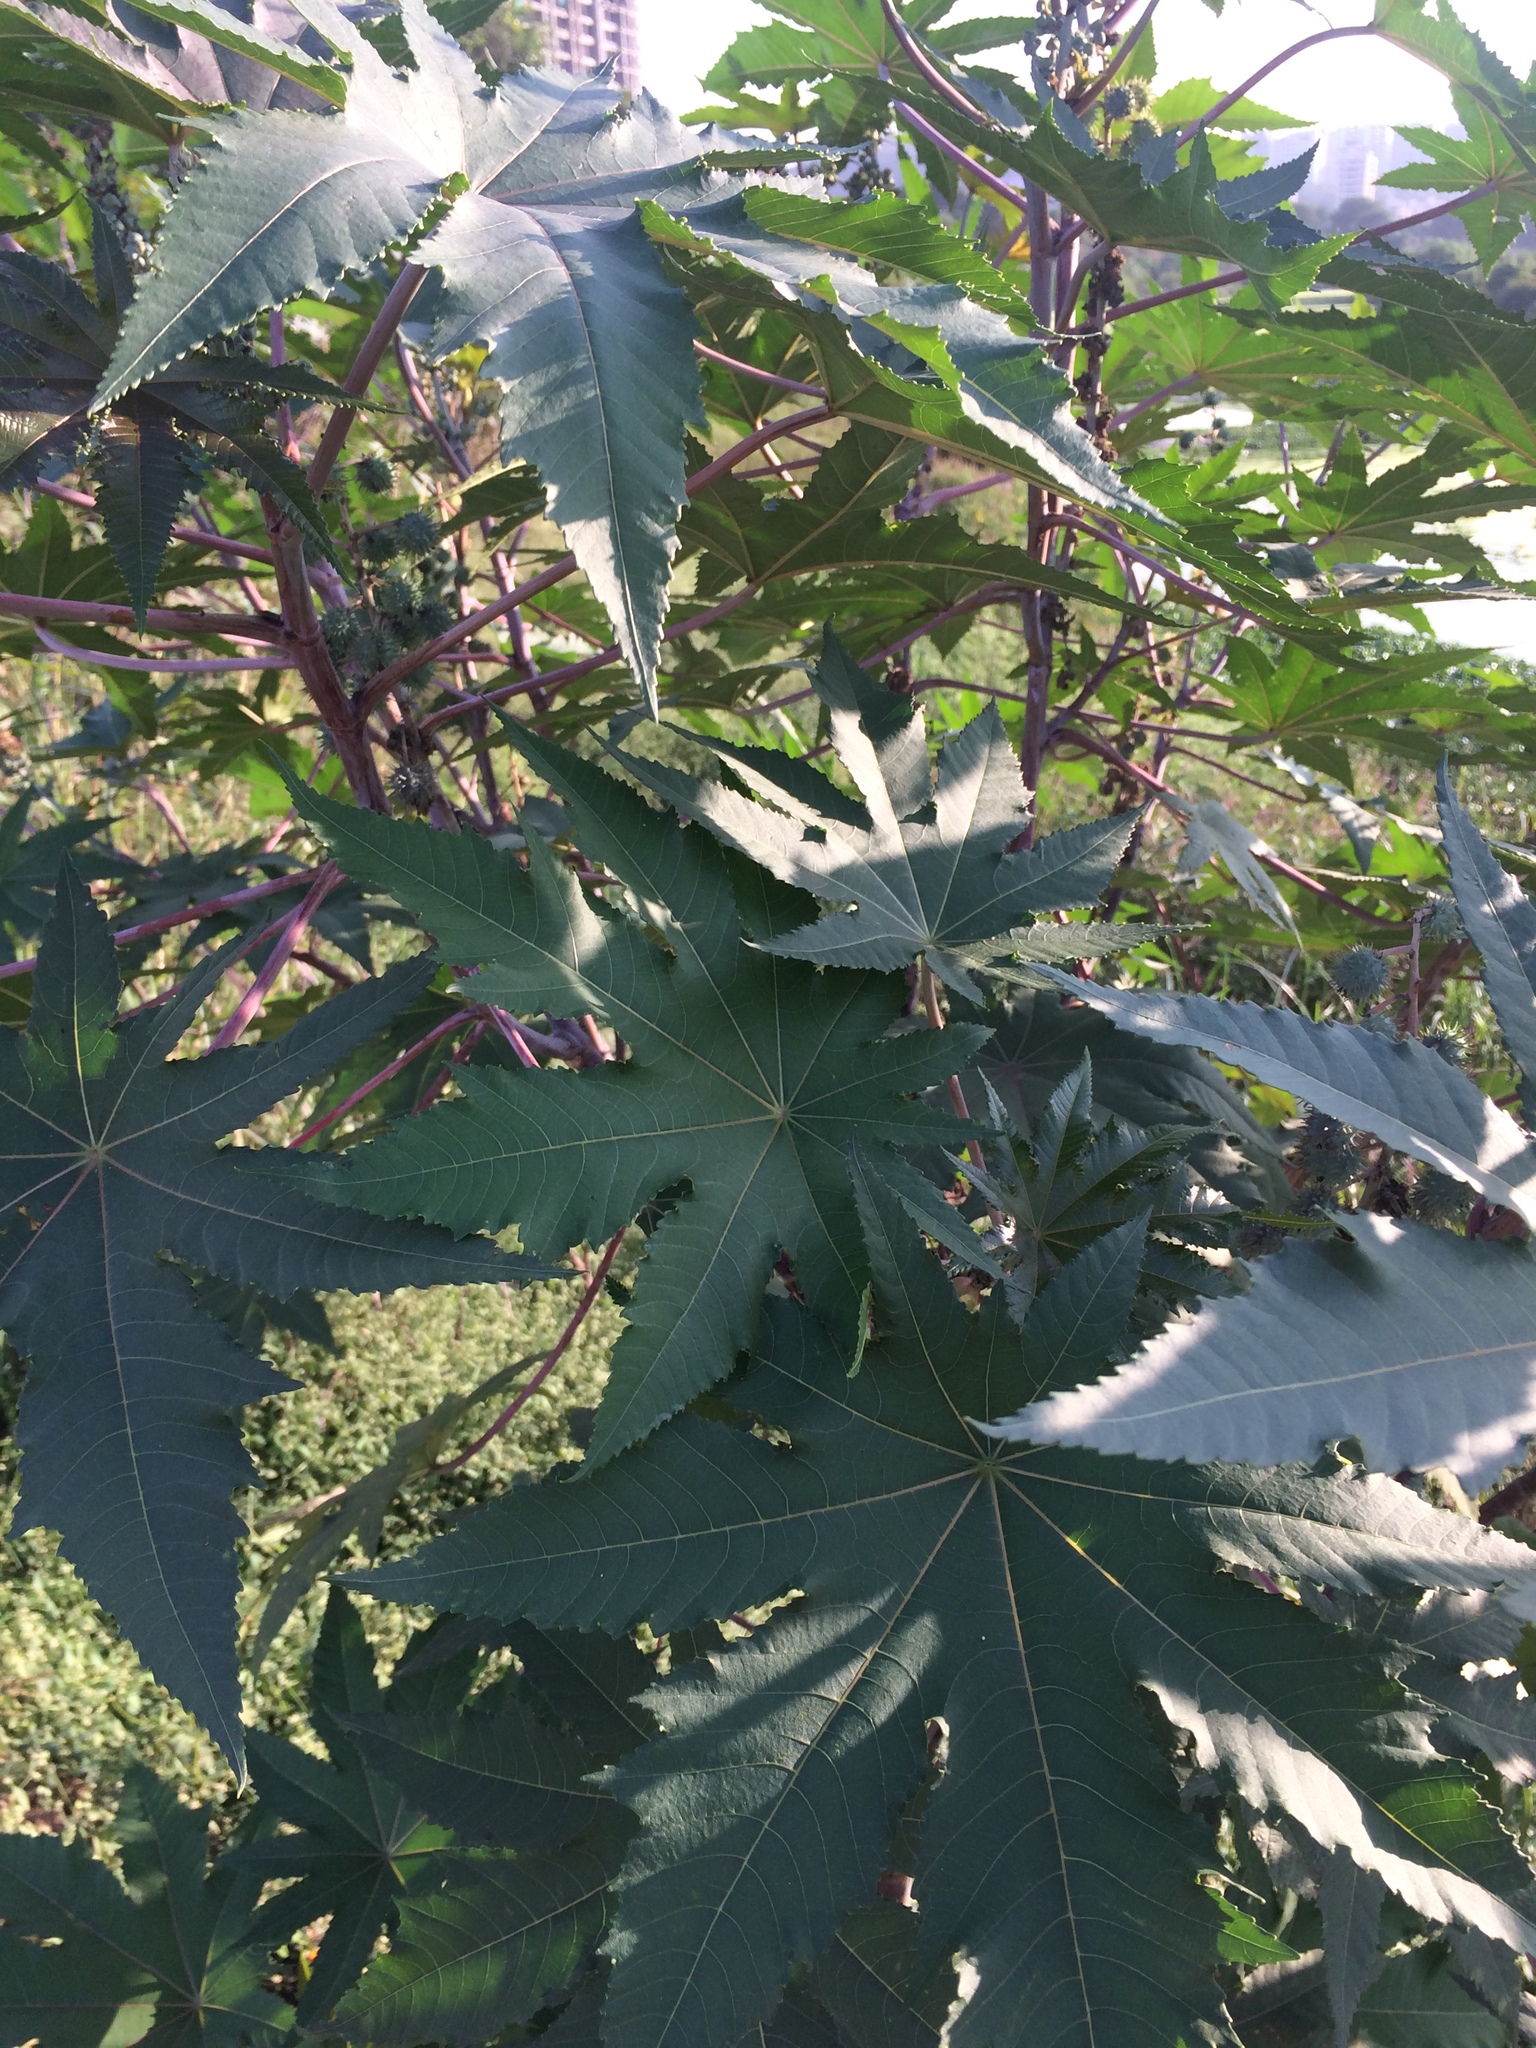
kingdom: Plantae
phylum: Tracheophyta
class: Magnoliopsida
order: Malpighiales
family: Euphorbiaceae
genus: Ricinus
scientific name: Ricinus communis
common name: Castor-oil-plant
